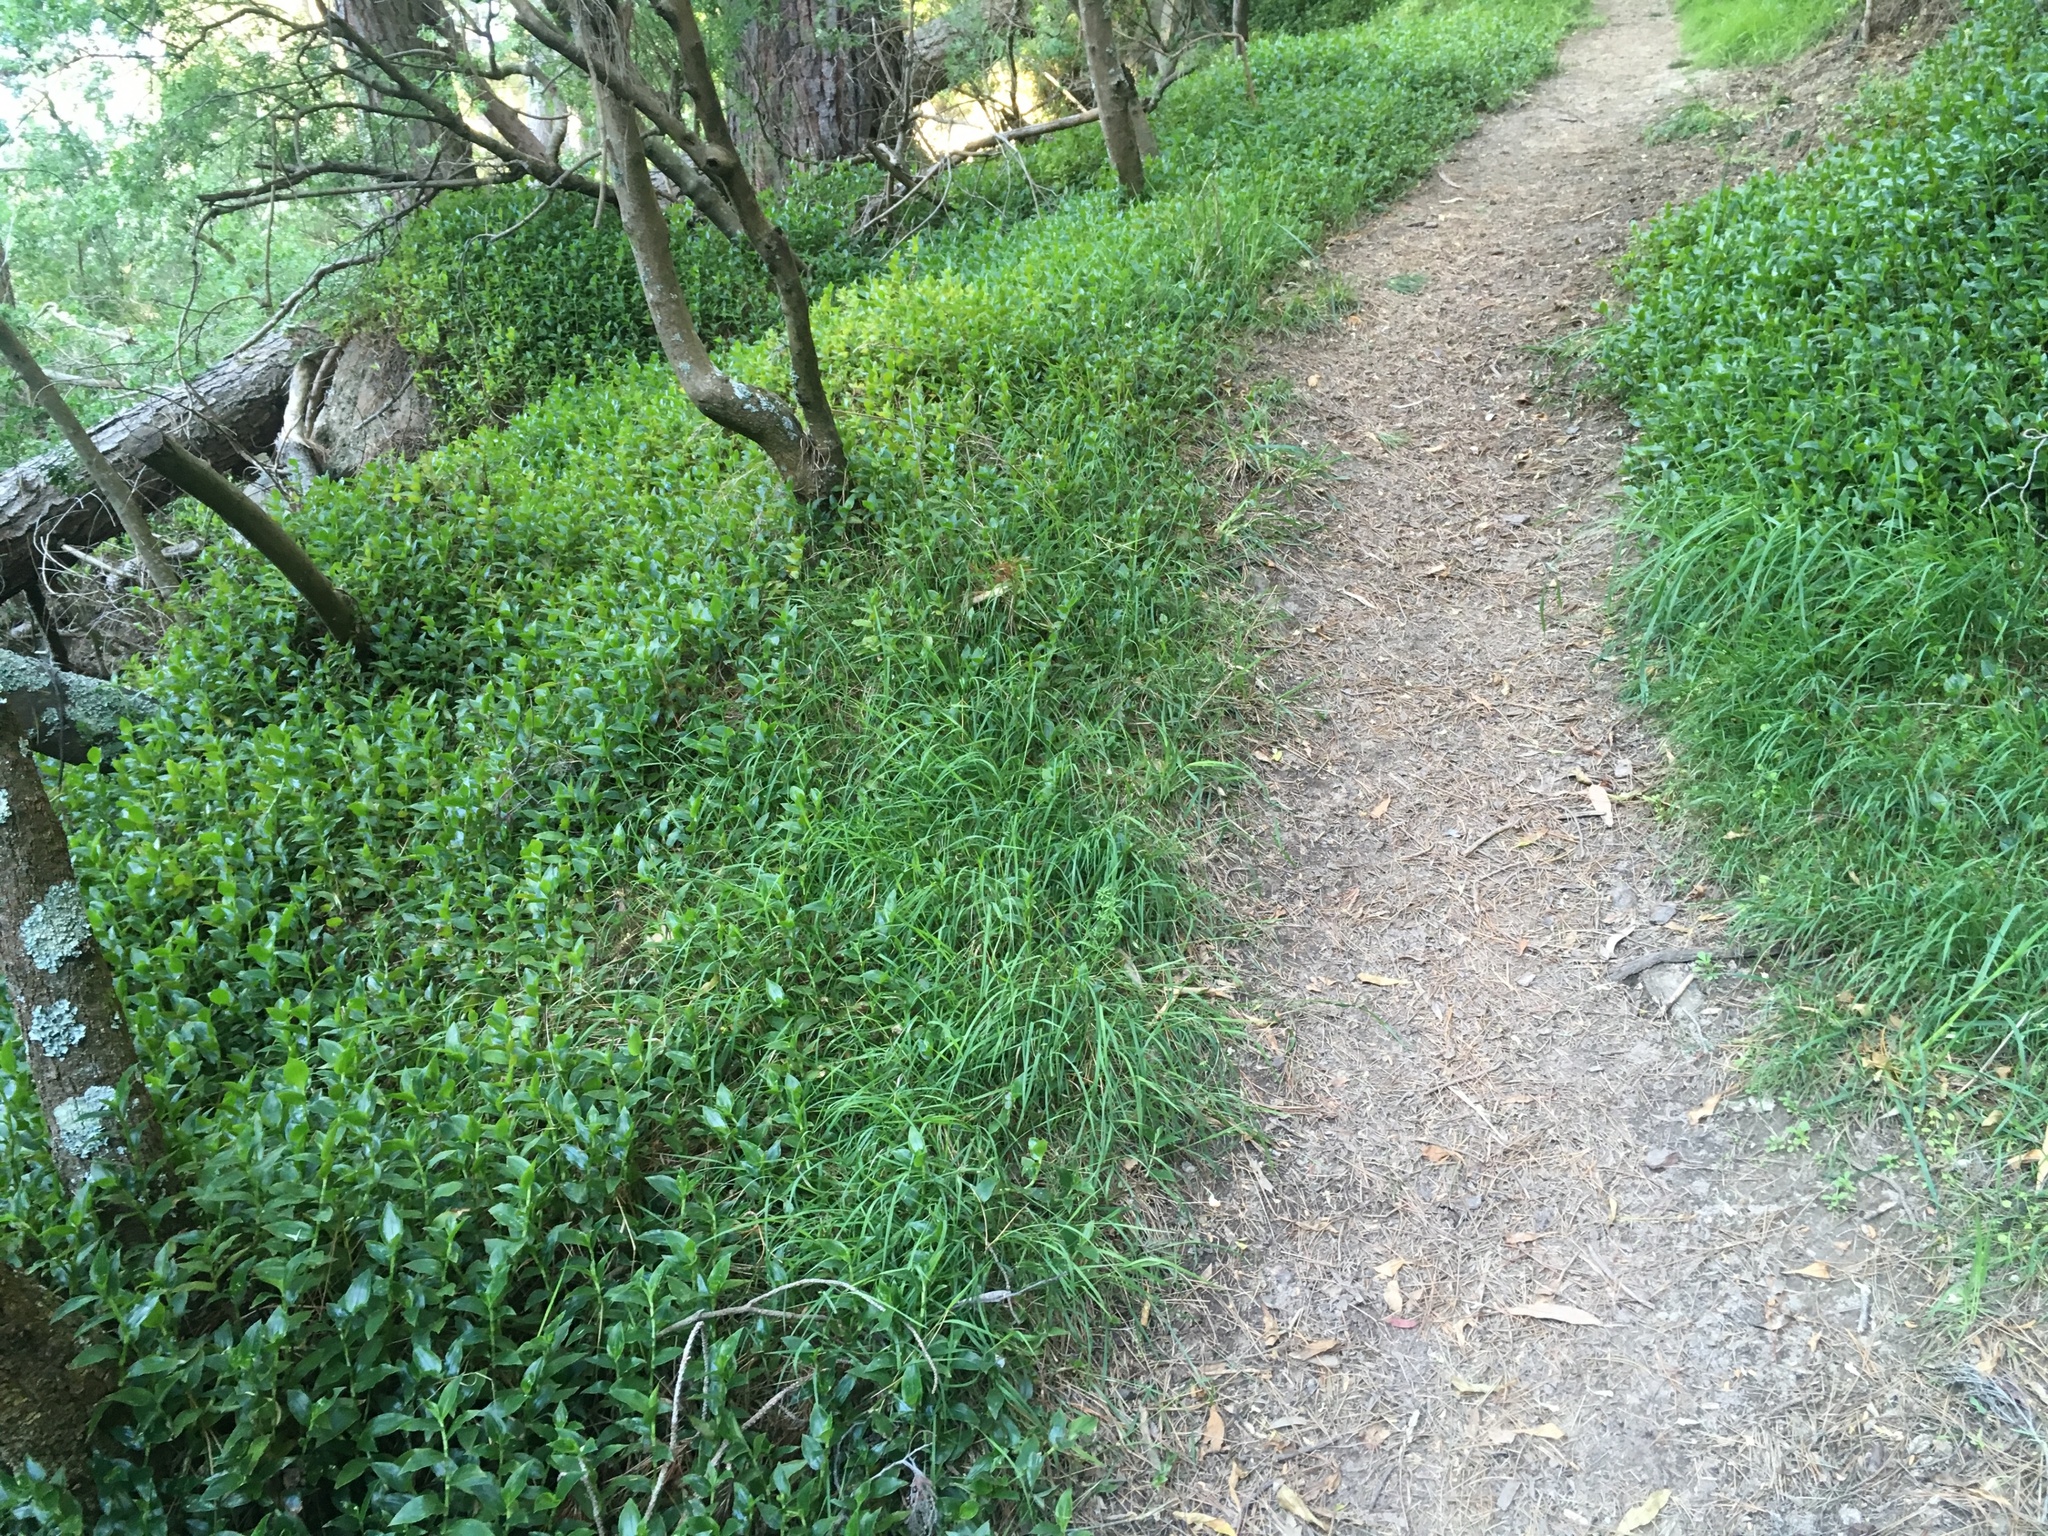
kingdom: Plantae
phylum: Tracheophyta
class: Liliopsida
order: Commelinales
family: Commelinaceae
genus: Tradescantia
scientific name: Tradescantia fluminensis
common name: Wandering-jew
